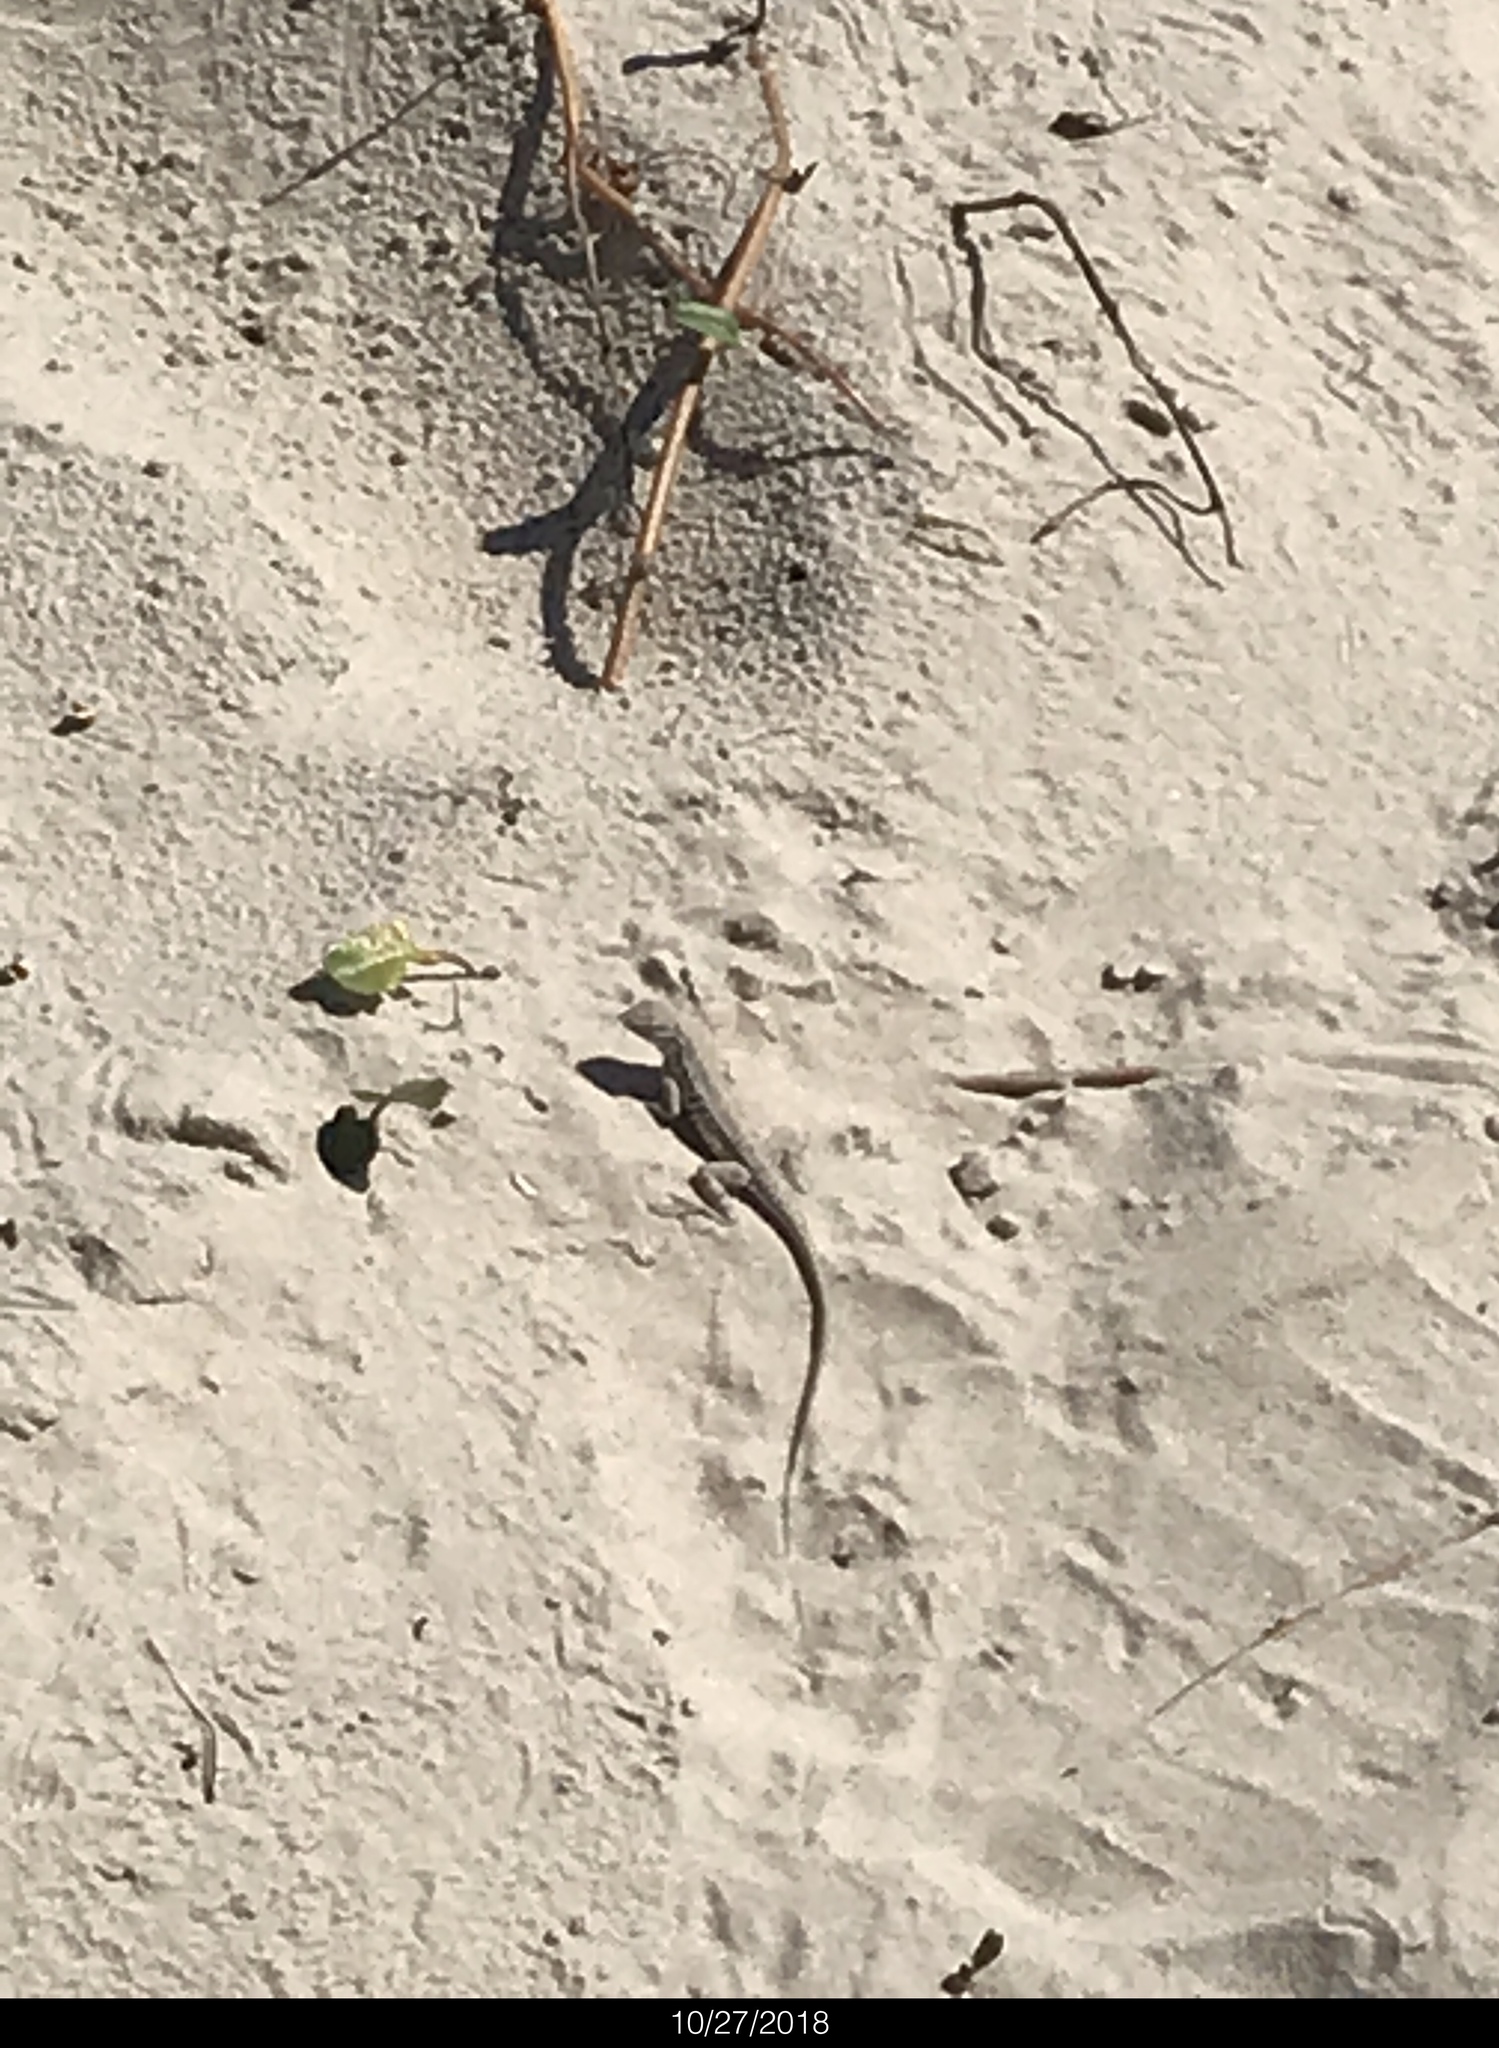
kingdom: Animalia
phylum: Chordata
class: Squamata
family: Phrynosomatidae
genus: Holbrookia
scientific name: Holbrookia propinqua
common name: Keeled earless lizard
